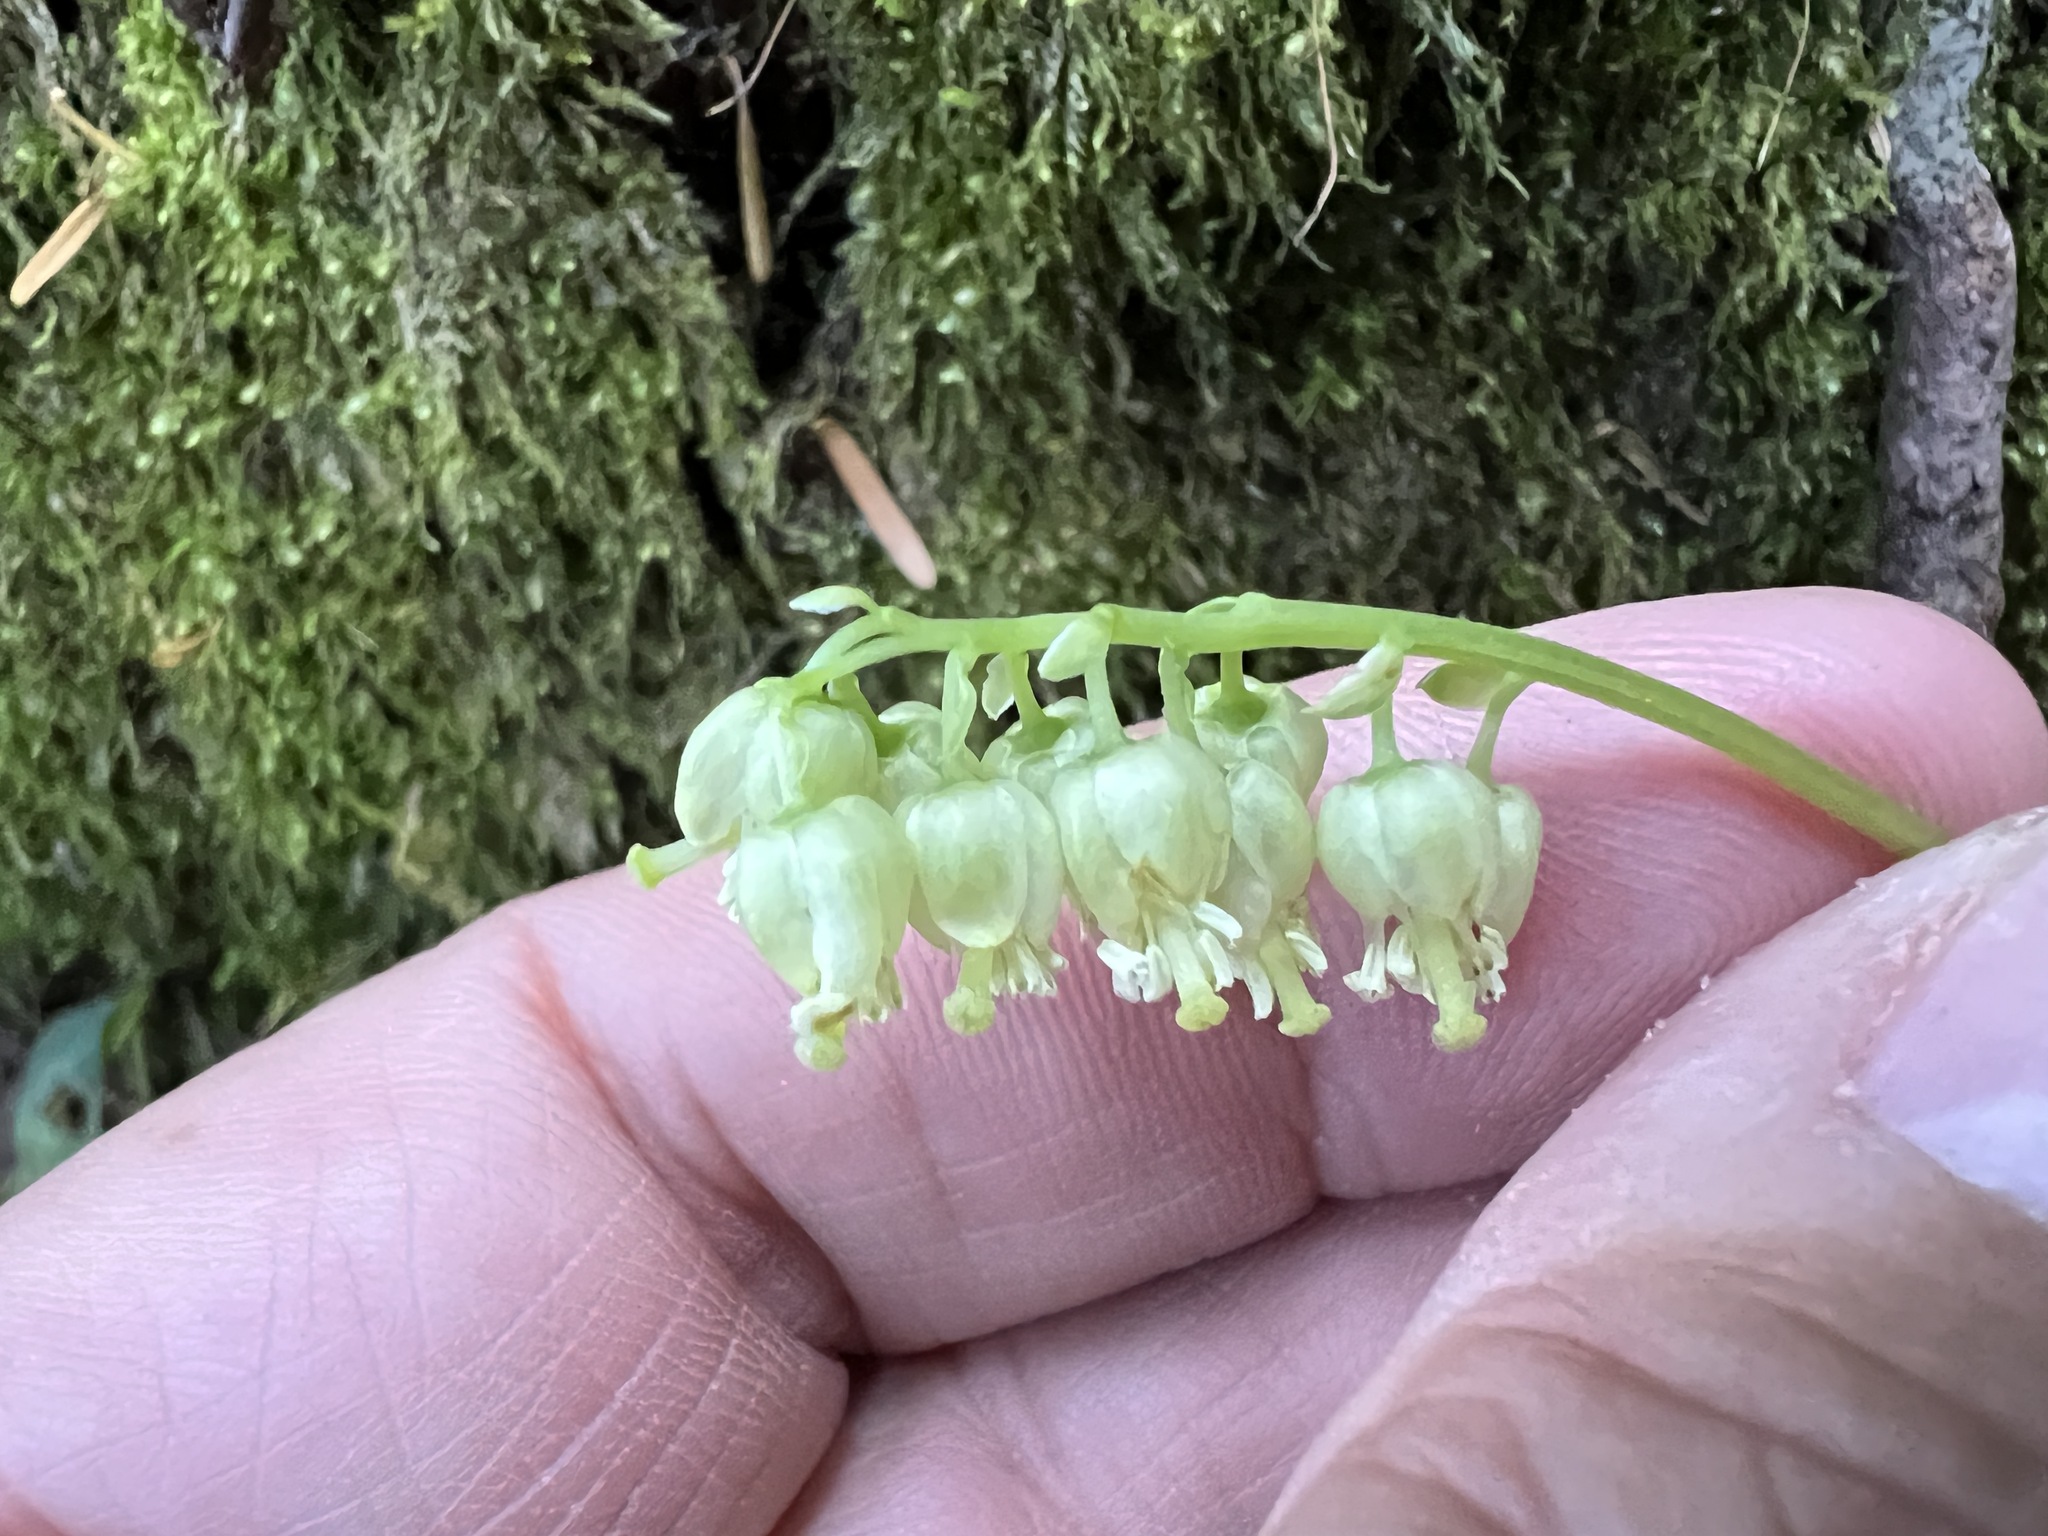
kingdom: Plantae
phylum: Tracheophyta
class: Magnoliopsida
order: Ericales
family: Ericaceae
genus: Orthilia
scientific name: Orthilia secunda
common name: One-sided orthilia
